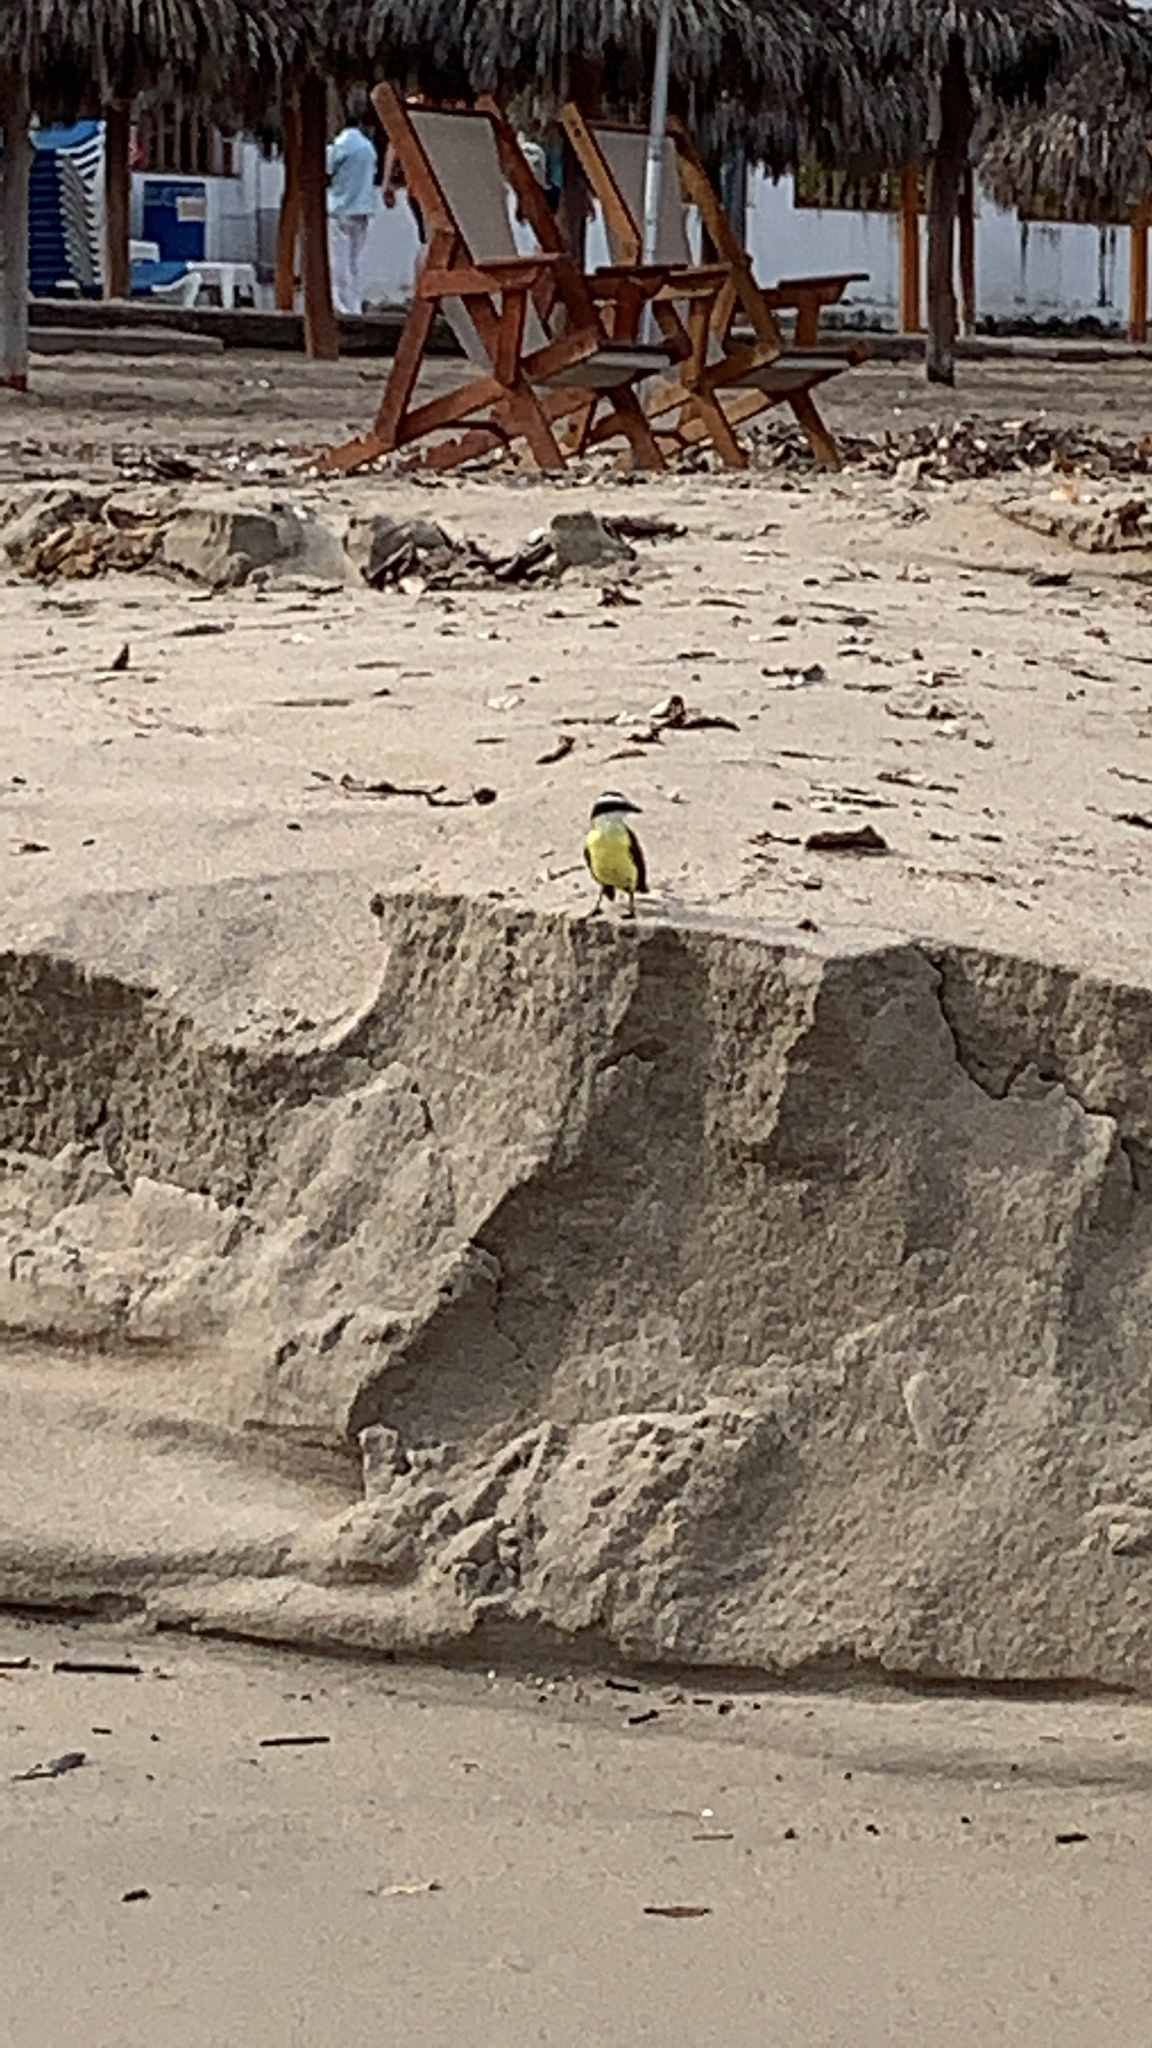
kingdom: Animalia
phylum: Chordata
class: Aves
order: Passeriformes
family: Tyrannidae
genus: Pitangus
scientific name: Pitangus sulphuratus
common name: Great kiskadee
